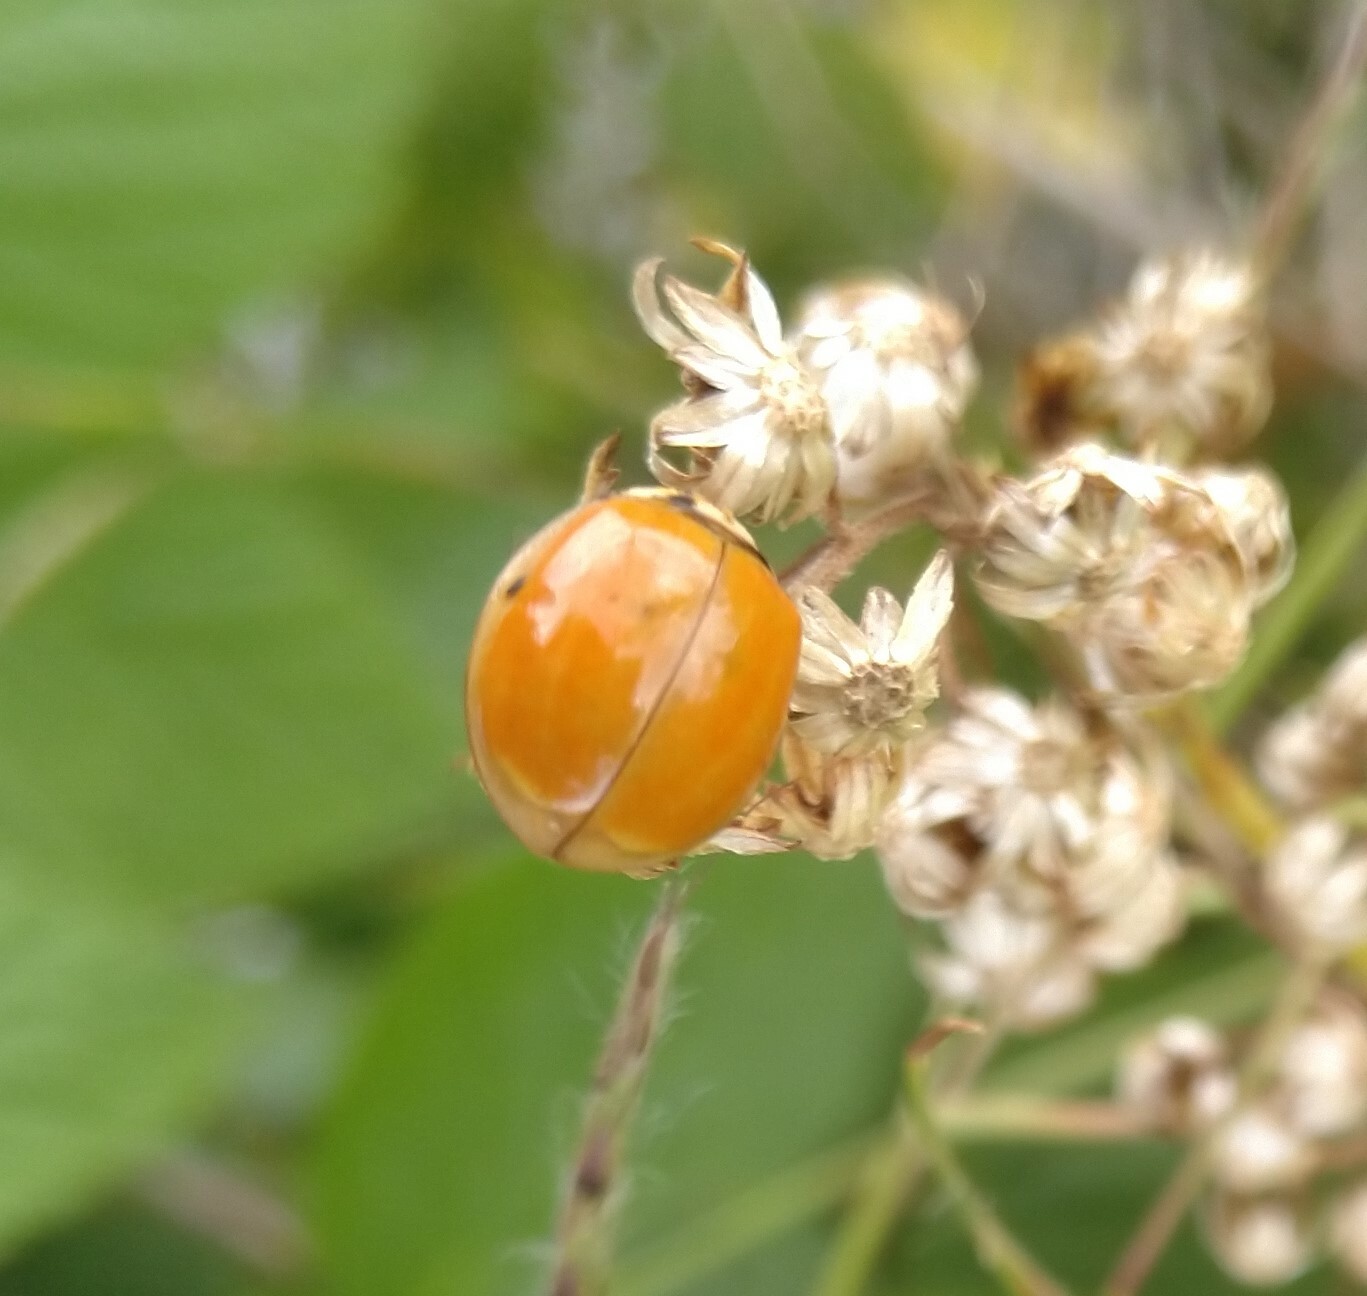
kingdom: Animalia
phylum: Arthropoda
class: Insecta
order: Coleoptera
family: Coccinellidae
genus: Harmonia
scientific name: Harmonia axyridis
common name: Harlequin ladybird
